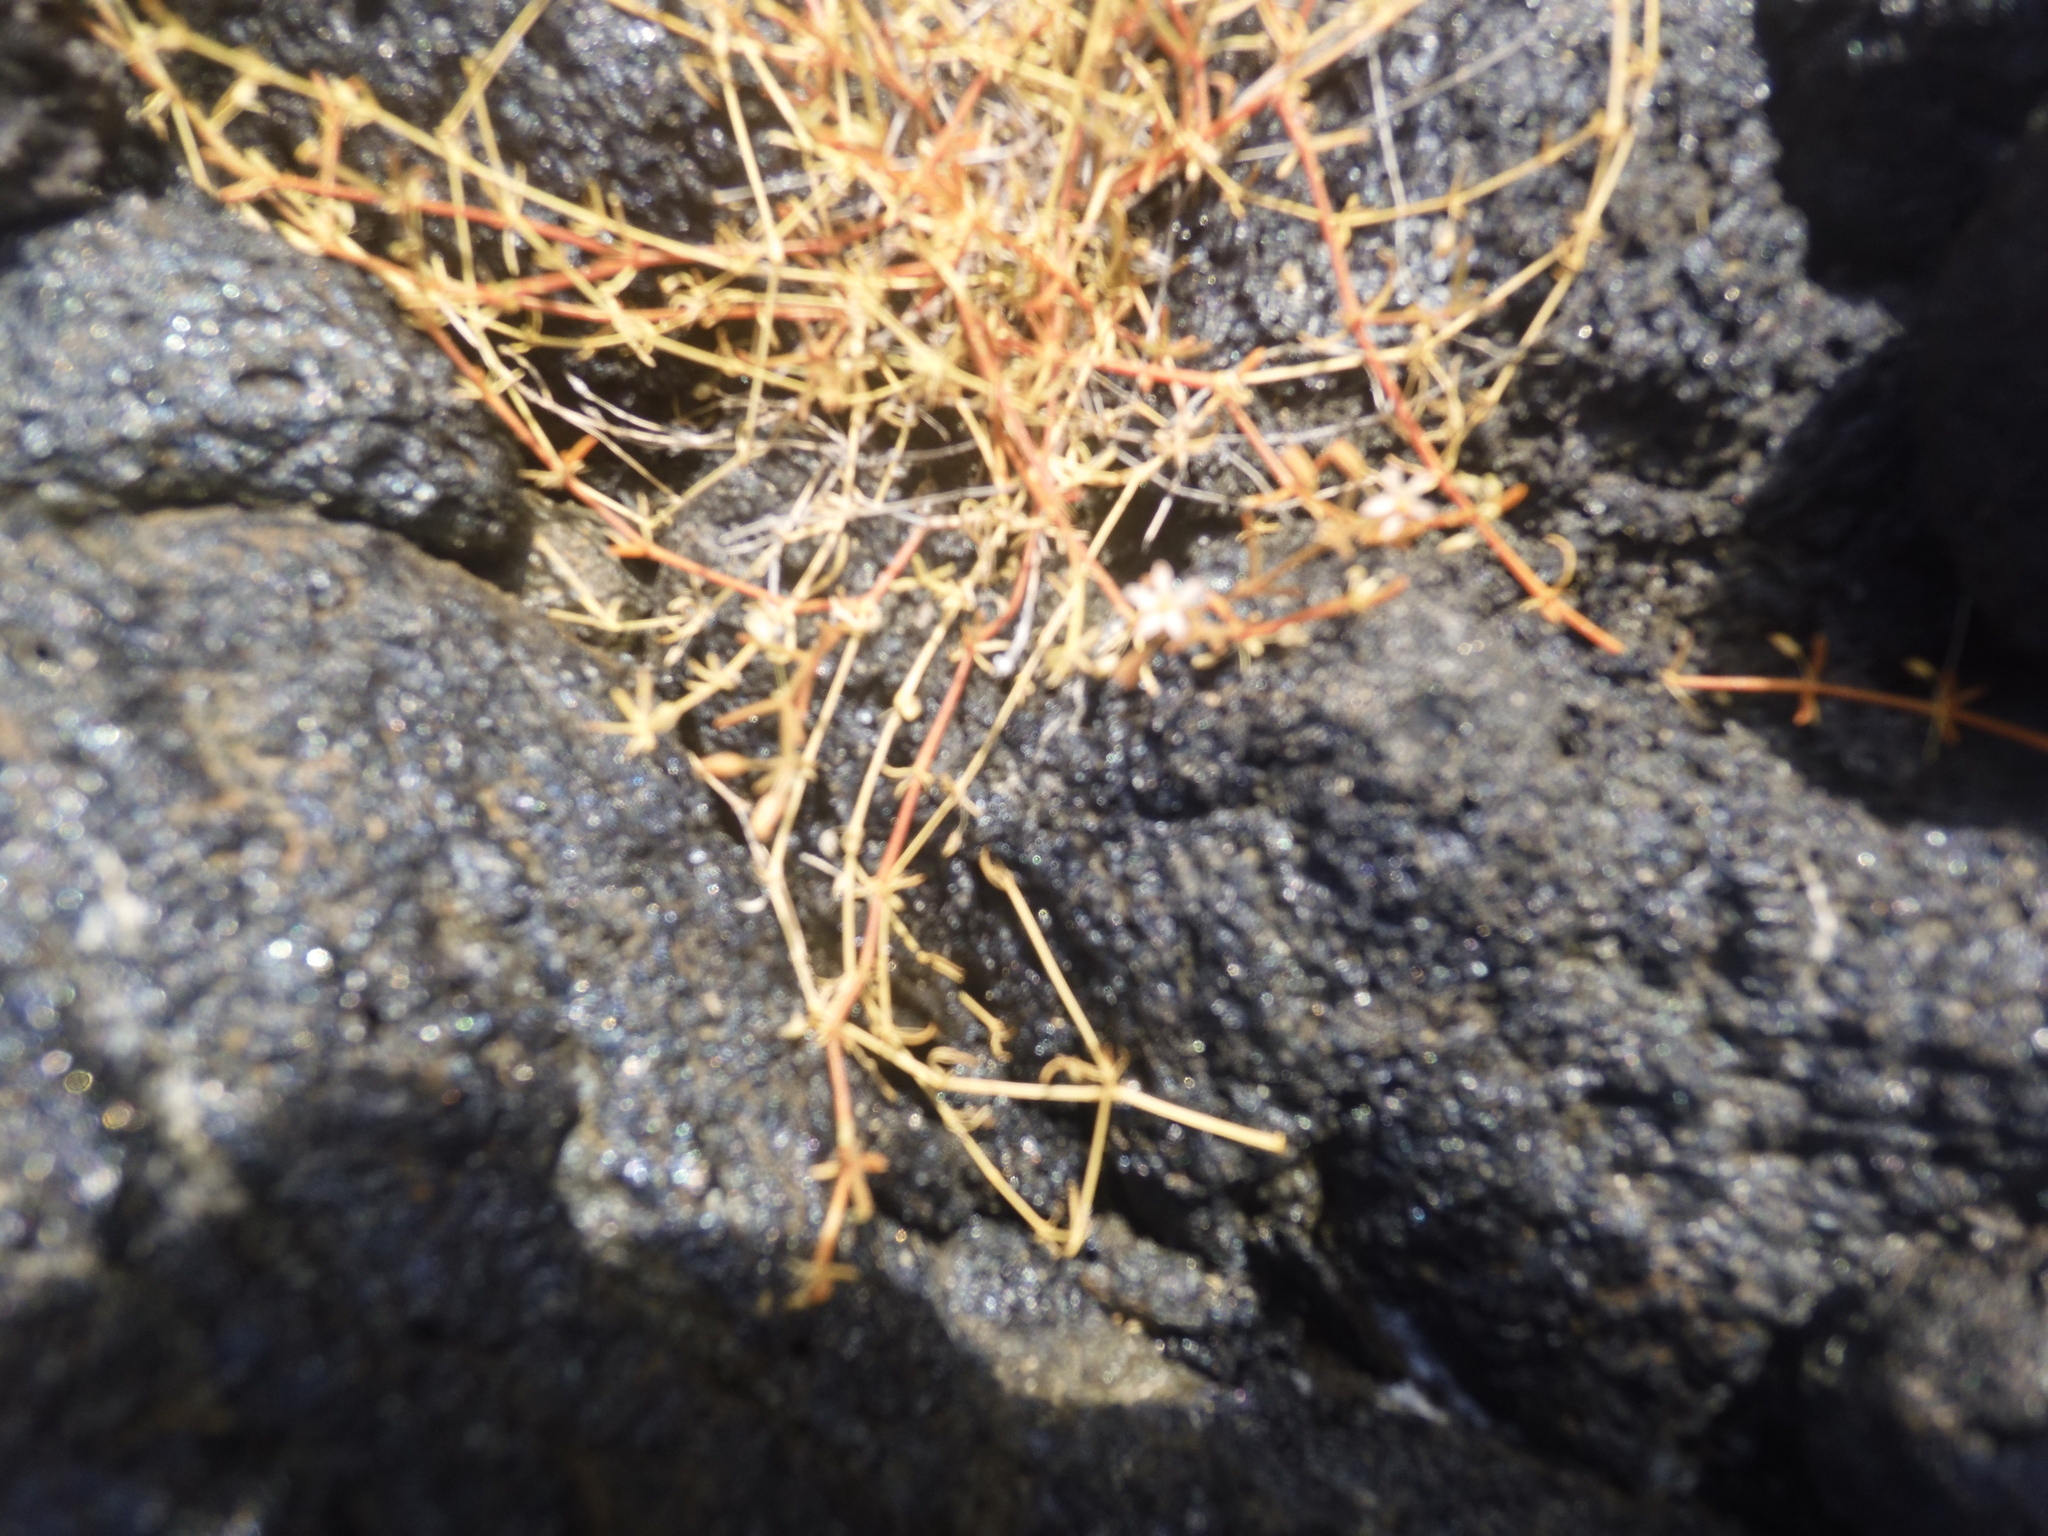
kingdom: Plantae
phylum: Tracheophyta
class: Magnoliopsida
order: Caryophyllales
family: Molluginaceae
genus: Mollugo
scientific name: Mollugo flavescens
